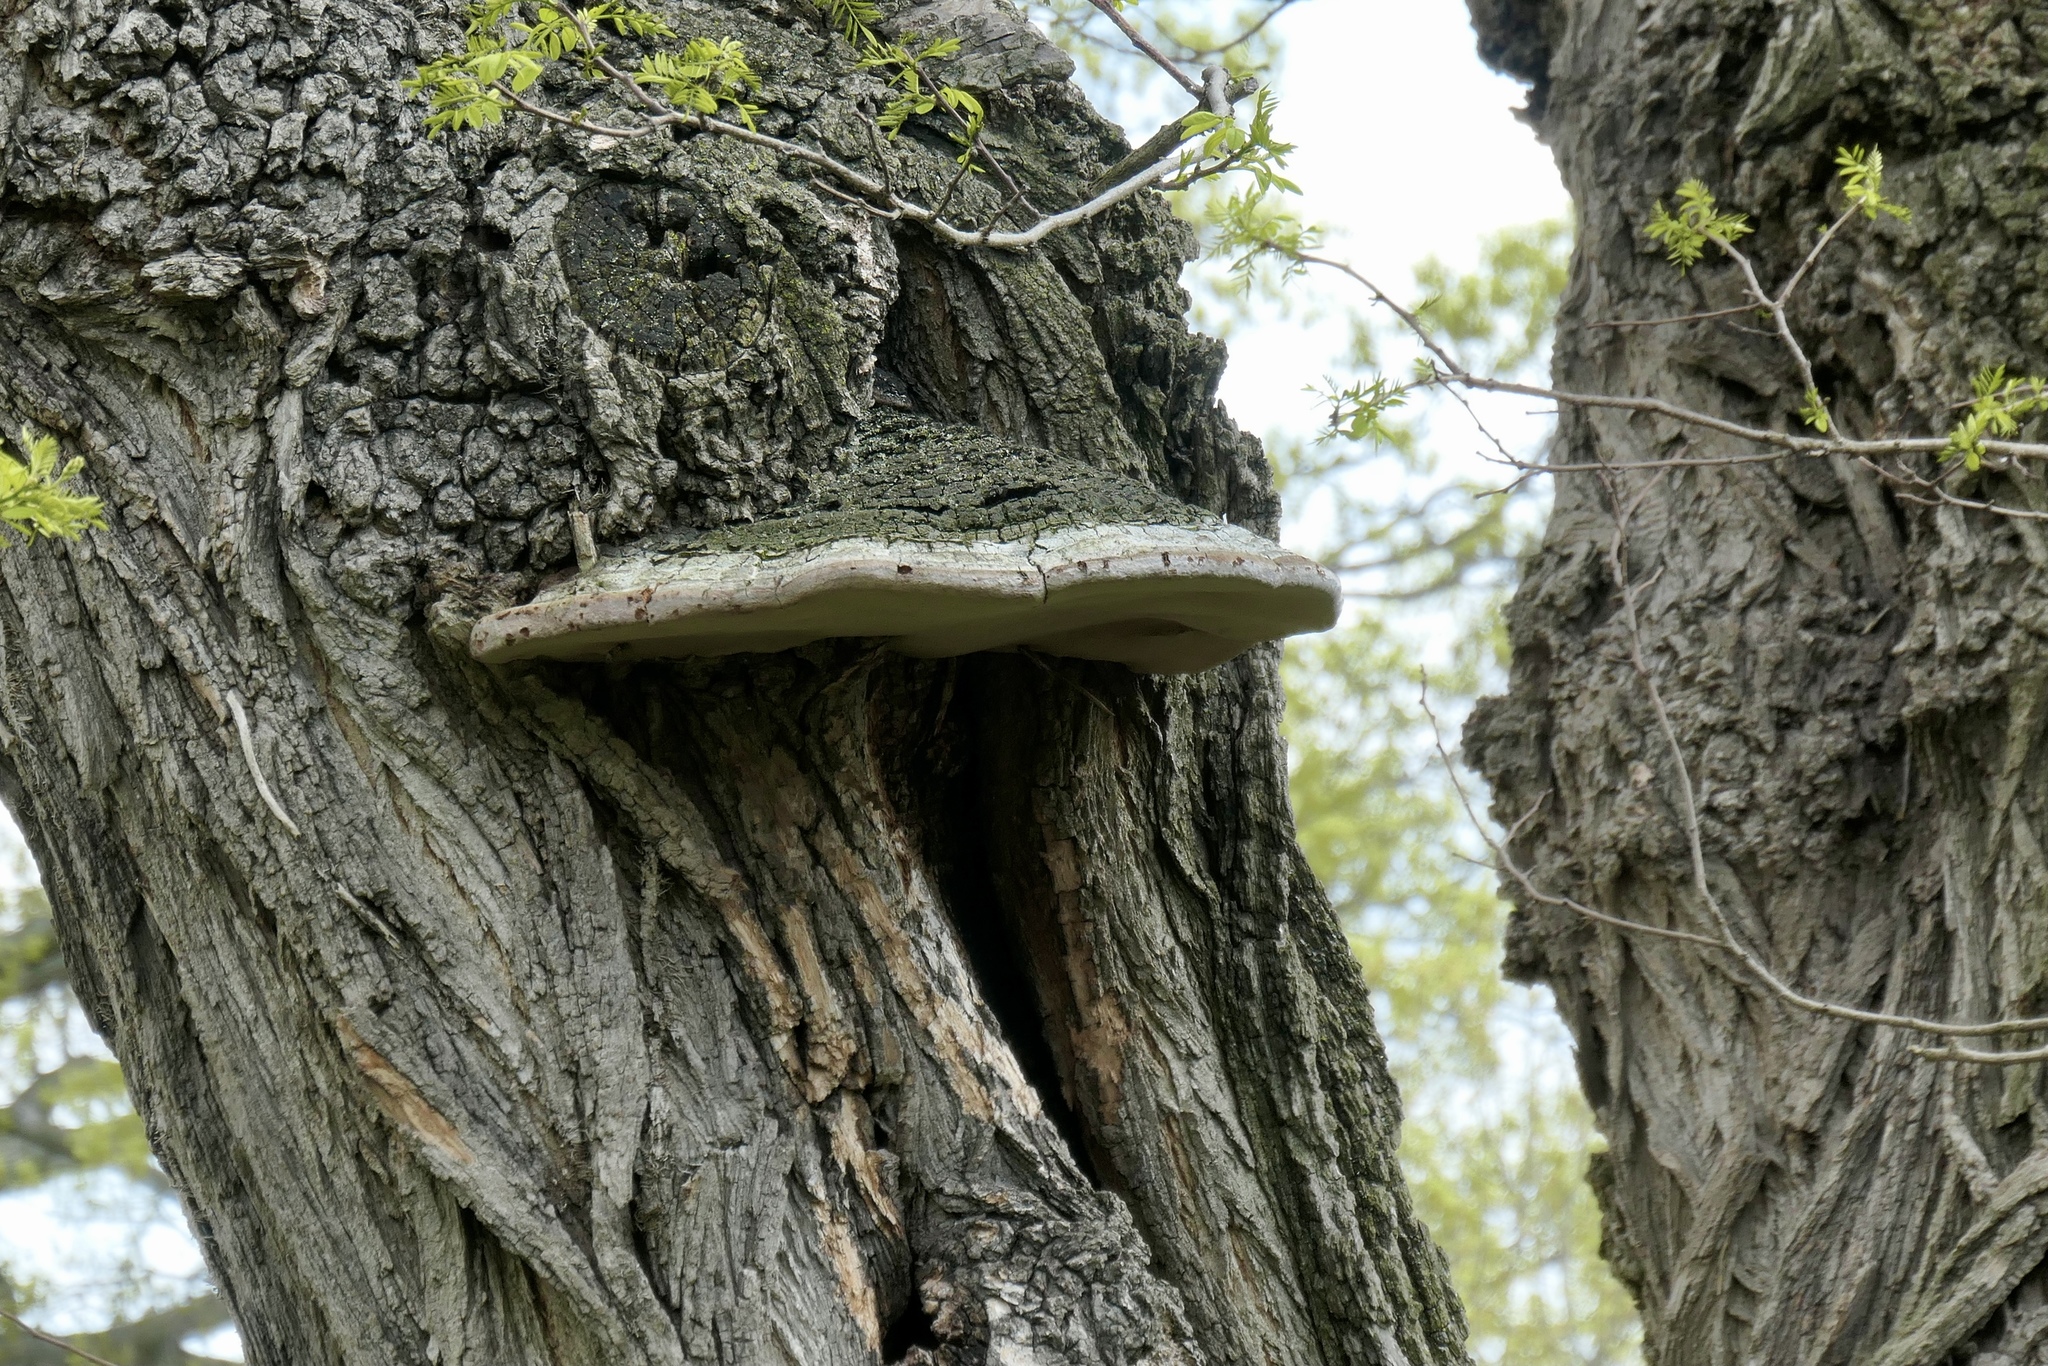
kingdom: Fungi
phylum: Basidiomycota
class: Agaricomycetes
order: Hymenochaetales
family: Hymenochaetaceae
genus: Phellinus
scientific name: Phellinus robiniae
